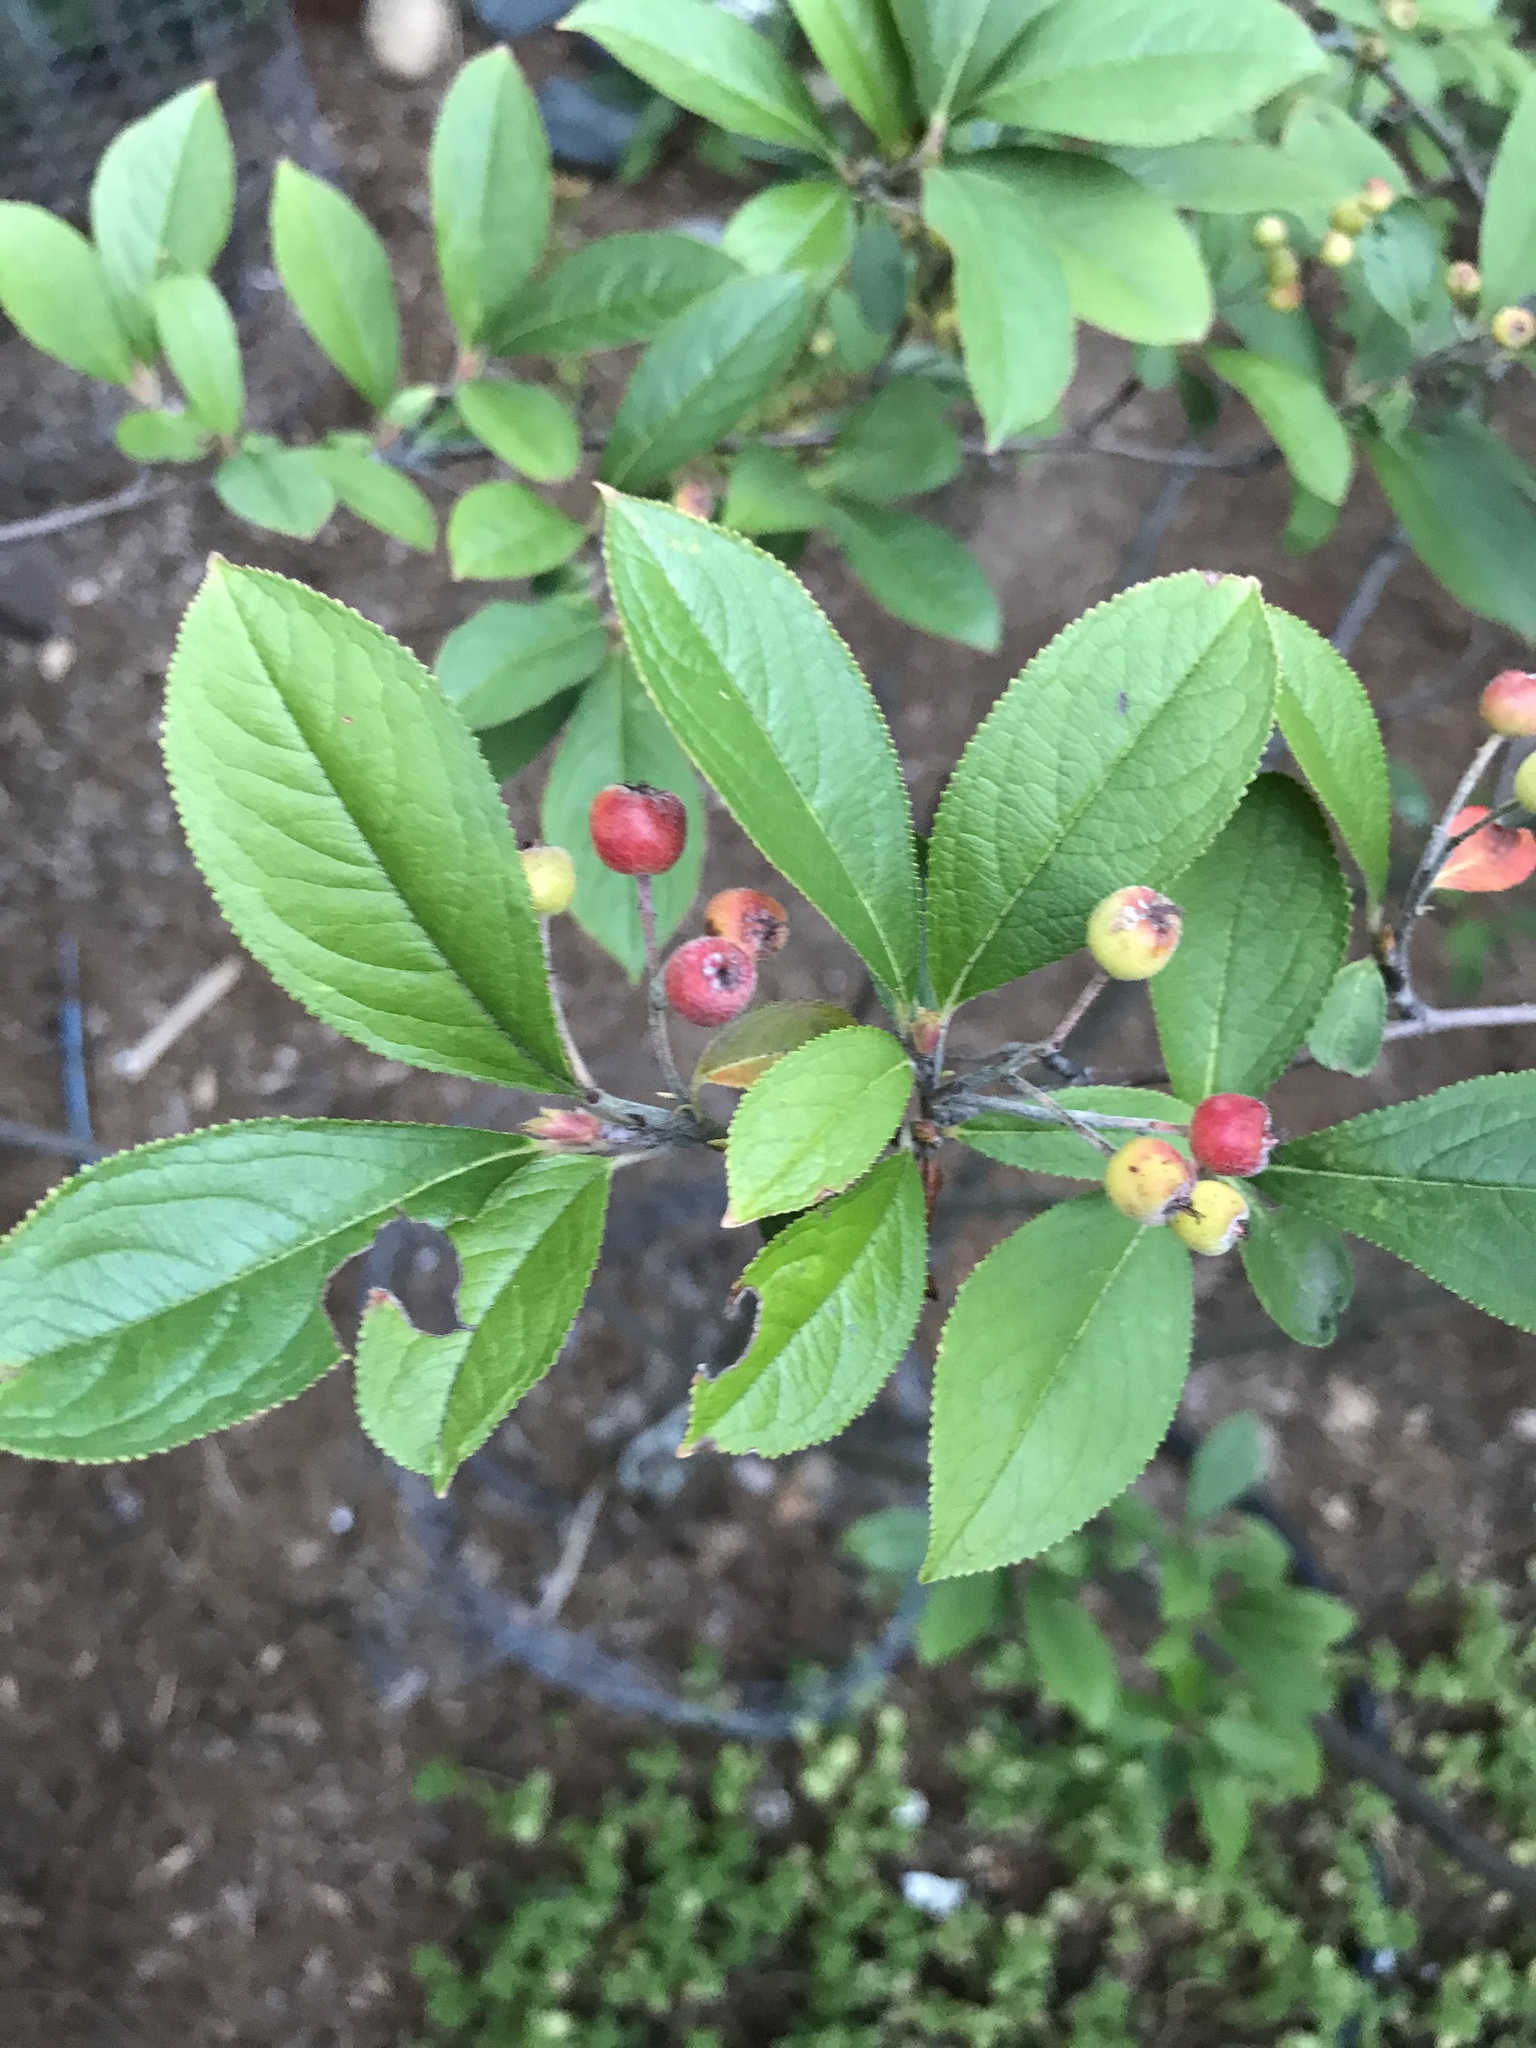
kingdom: Plantae
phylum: Tracheophyta
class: Magnoliopsida
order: Rosales
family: Rosaceae
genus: Aronia
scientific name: Aronia arbutifolia
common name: Red chokeberry
